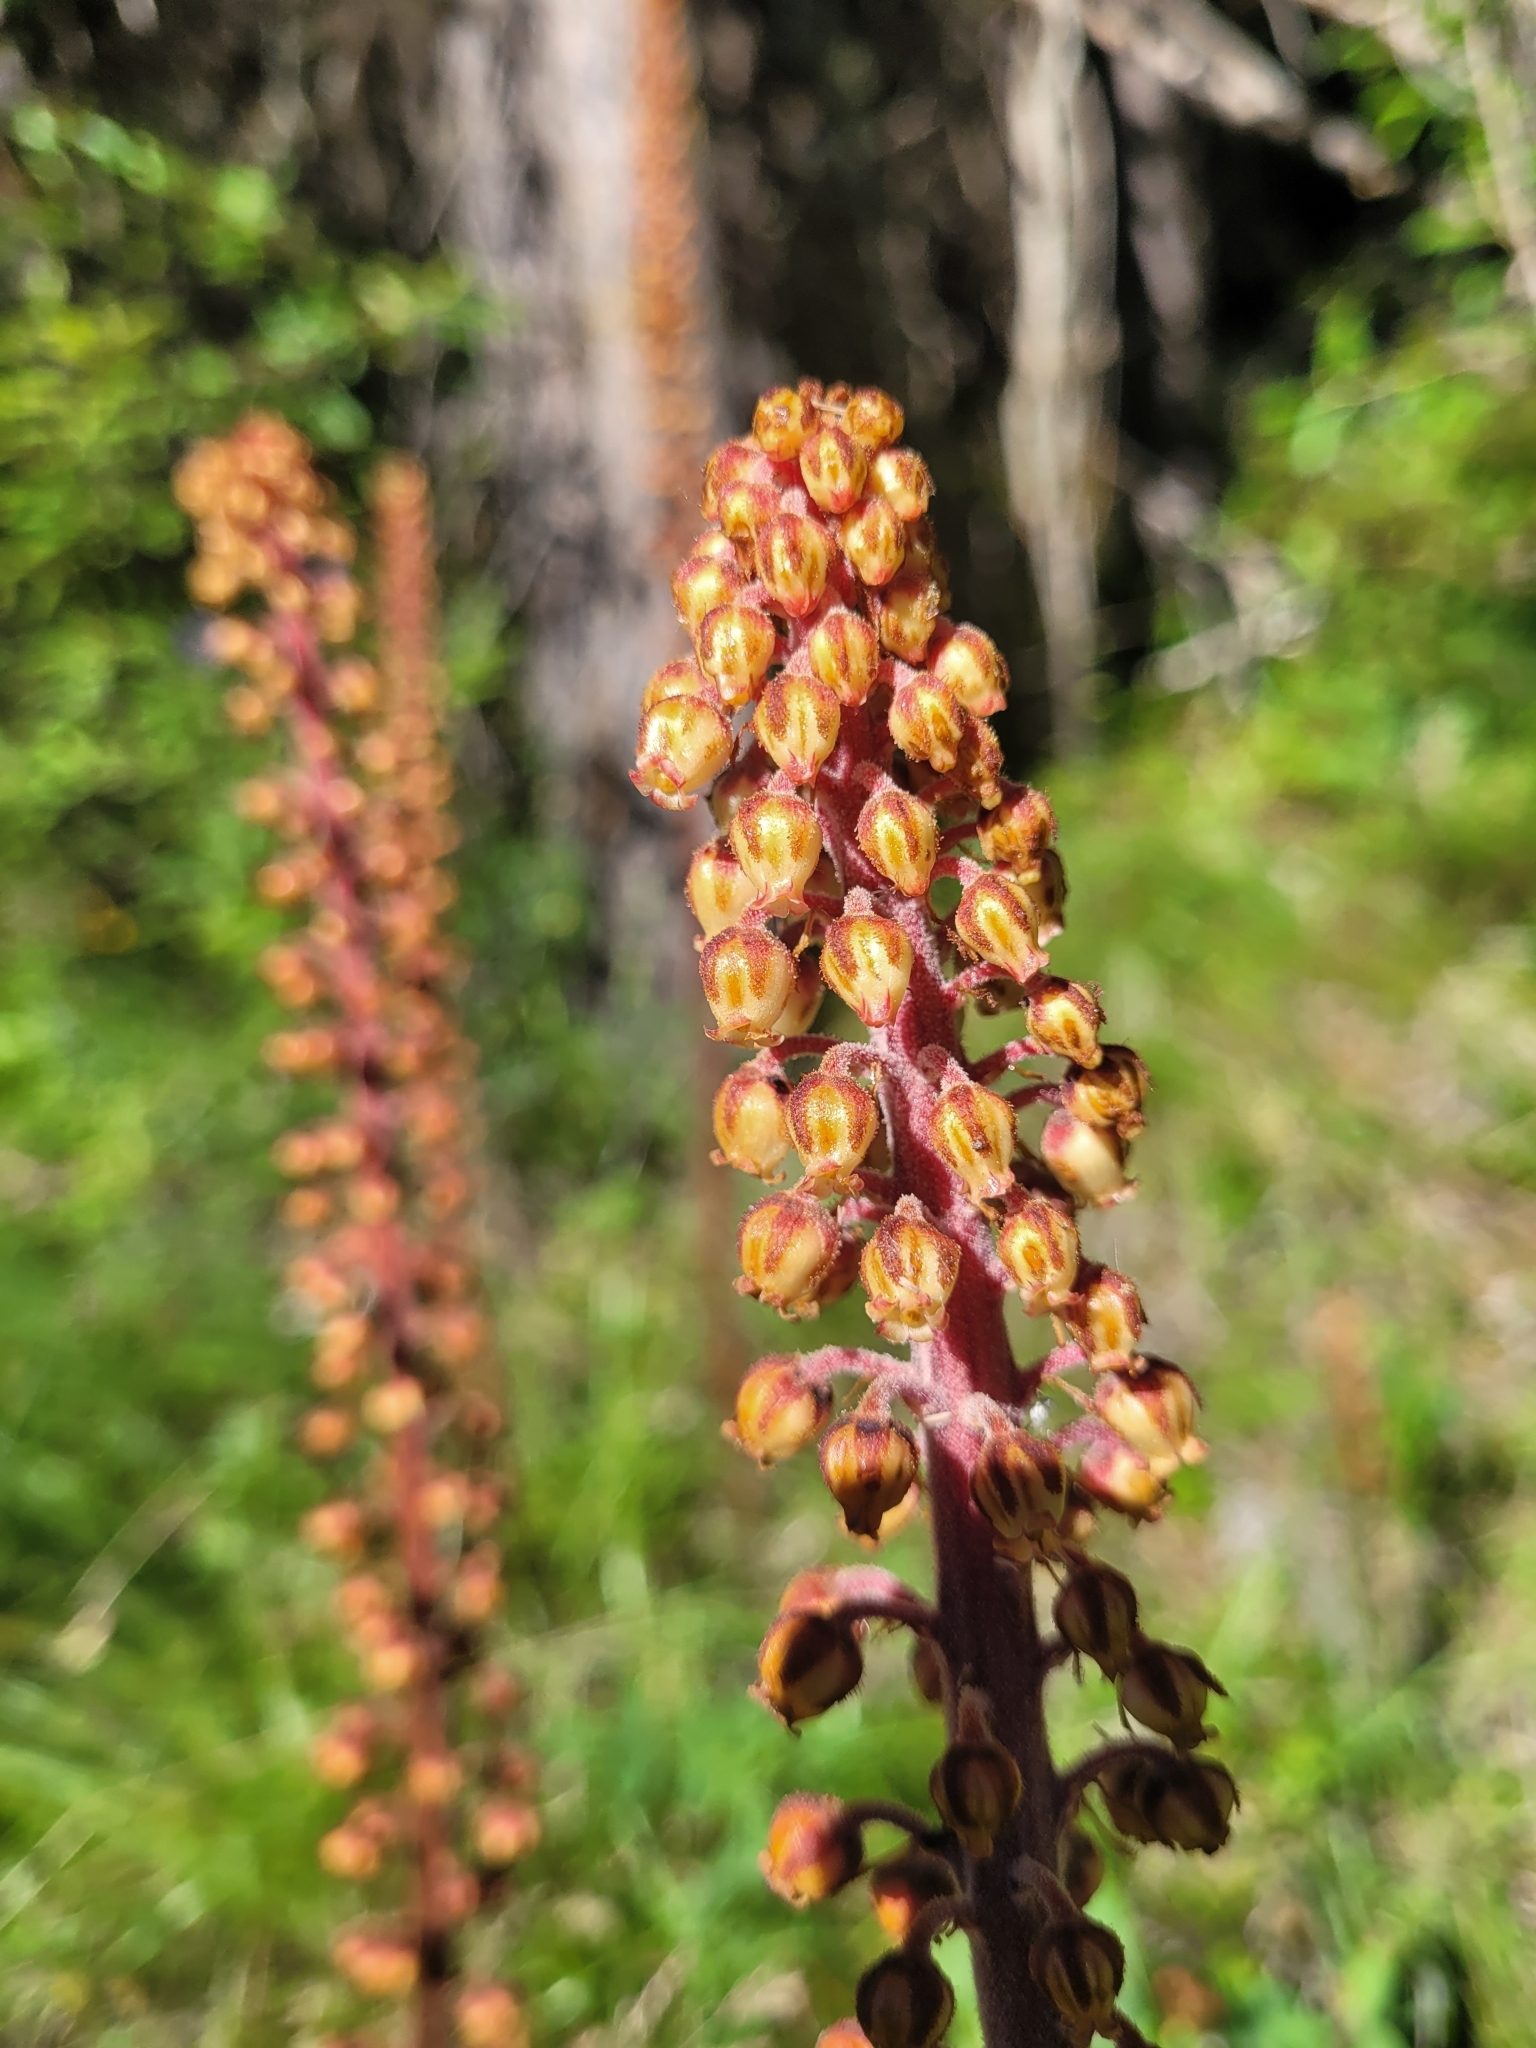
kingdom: Plantae
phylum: Tracheophyta
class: Magnoliopsida
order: Ericales
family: Ericaceae
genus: Pterospora
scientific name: Pterospora andromedea
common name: Giant bird's-nest
